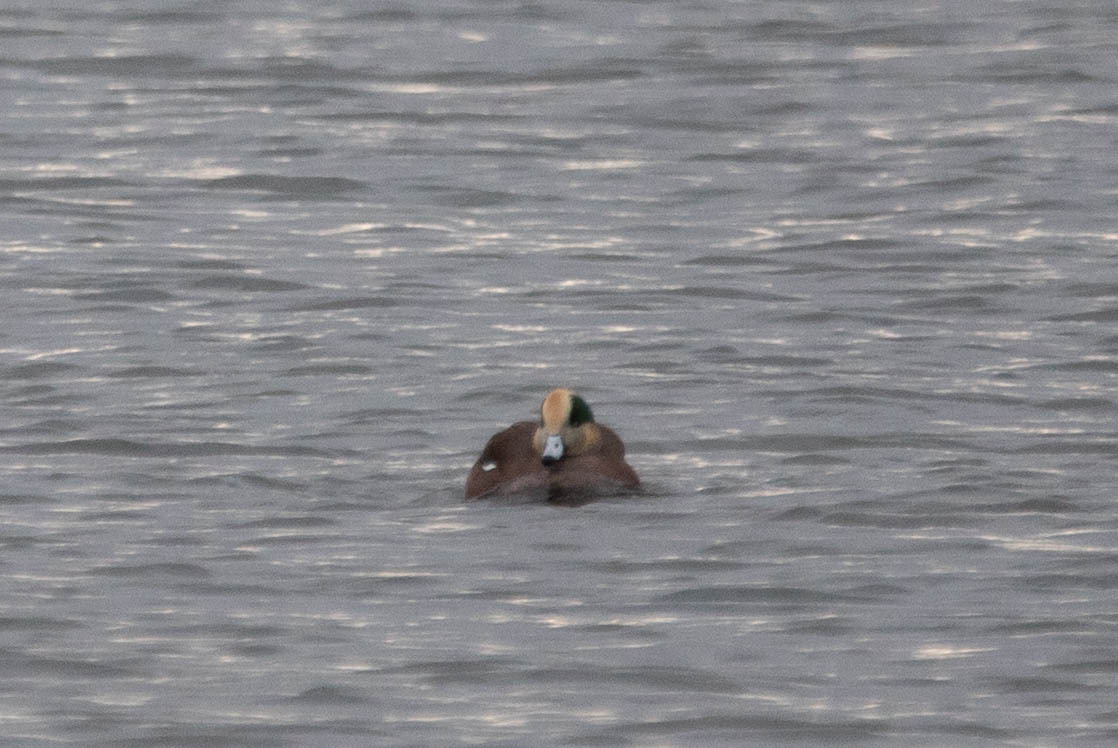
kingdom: Animalia
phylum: Chordata
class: Aves
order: Anseriformes
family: Anatidae
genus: Mareca
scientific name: Mareca americana
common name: American wigeon
